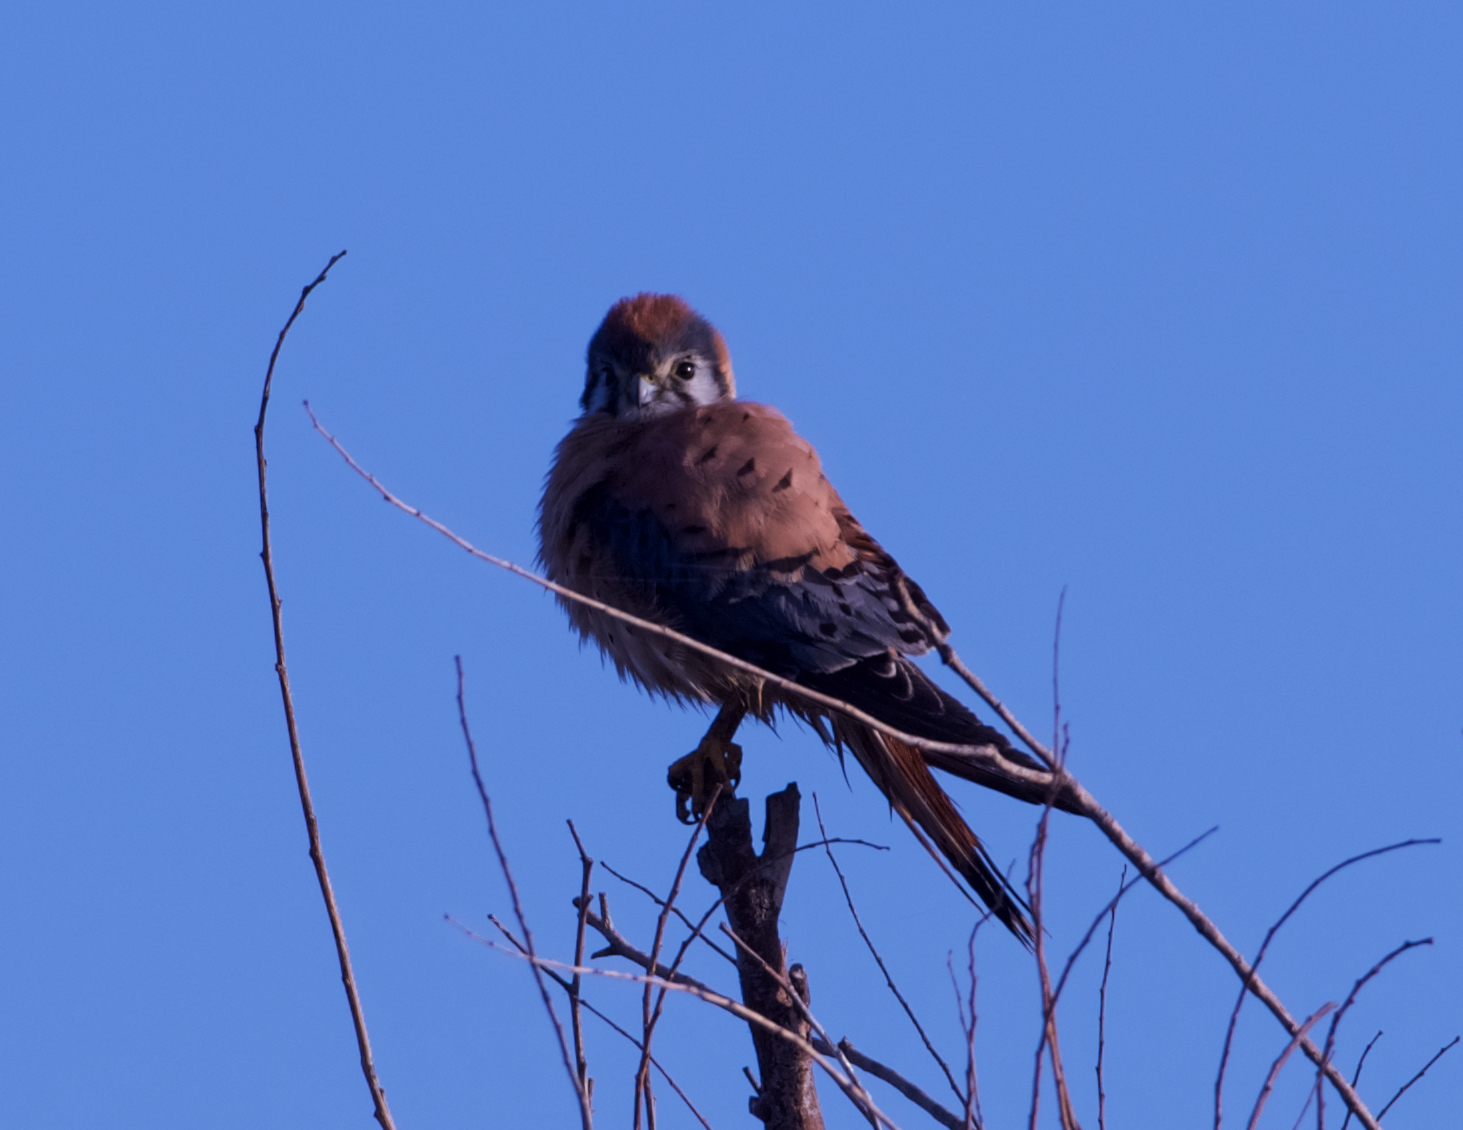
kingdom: Animalia
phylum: Chordata
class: Aves
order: Falconiformes
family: Falconidae
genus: Falco
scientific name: Falco sparverius
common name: American kestrel
